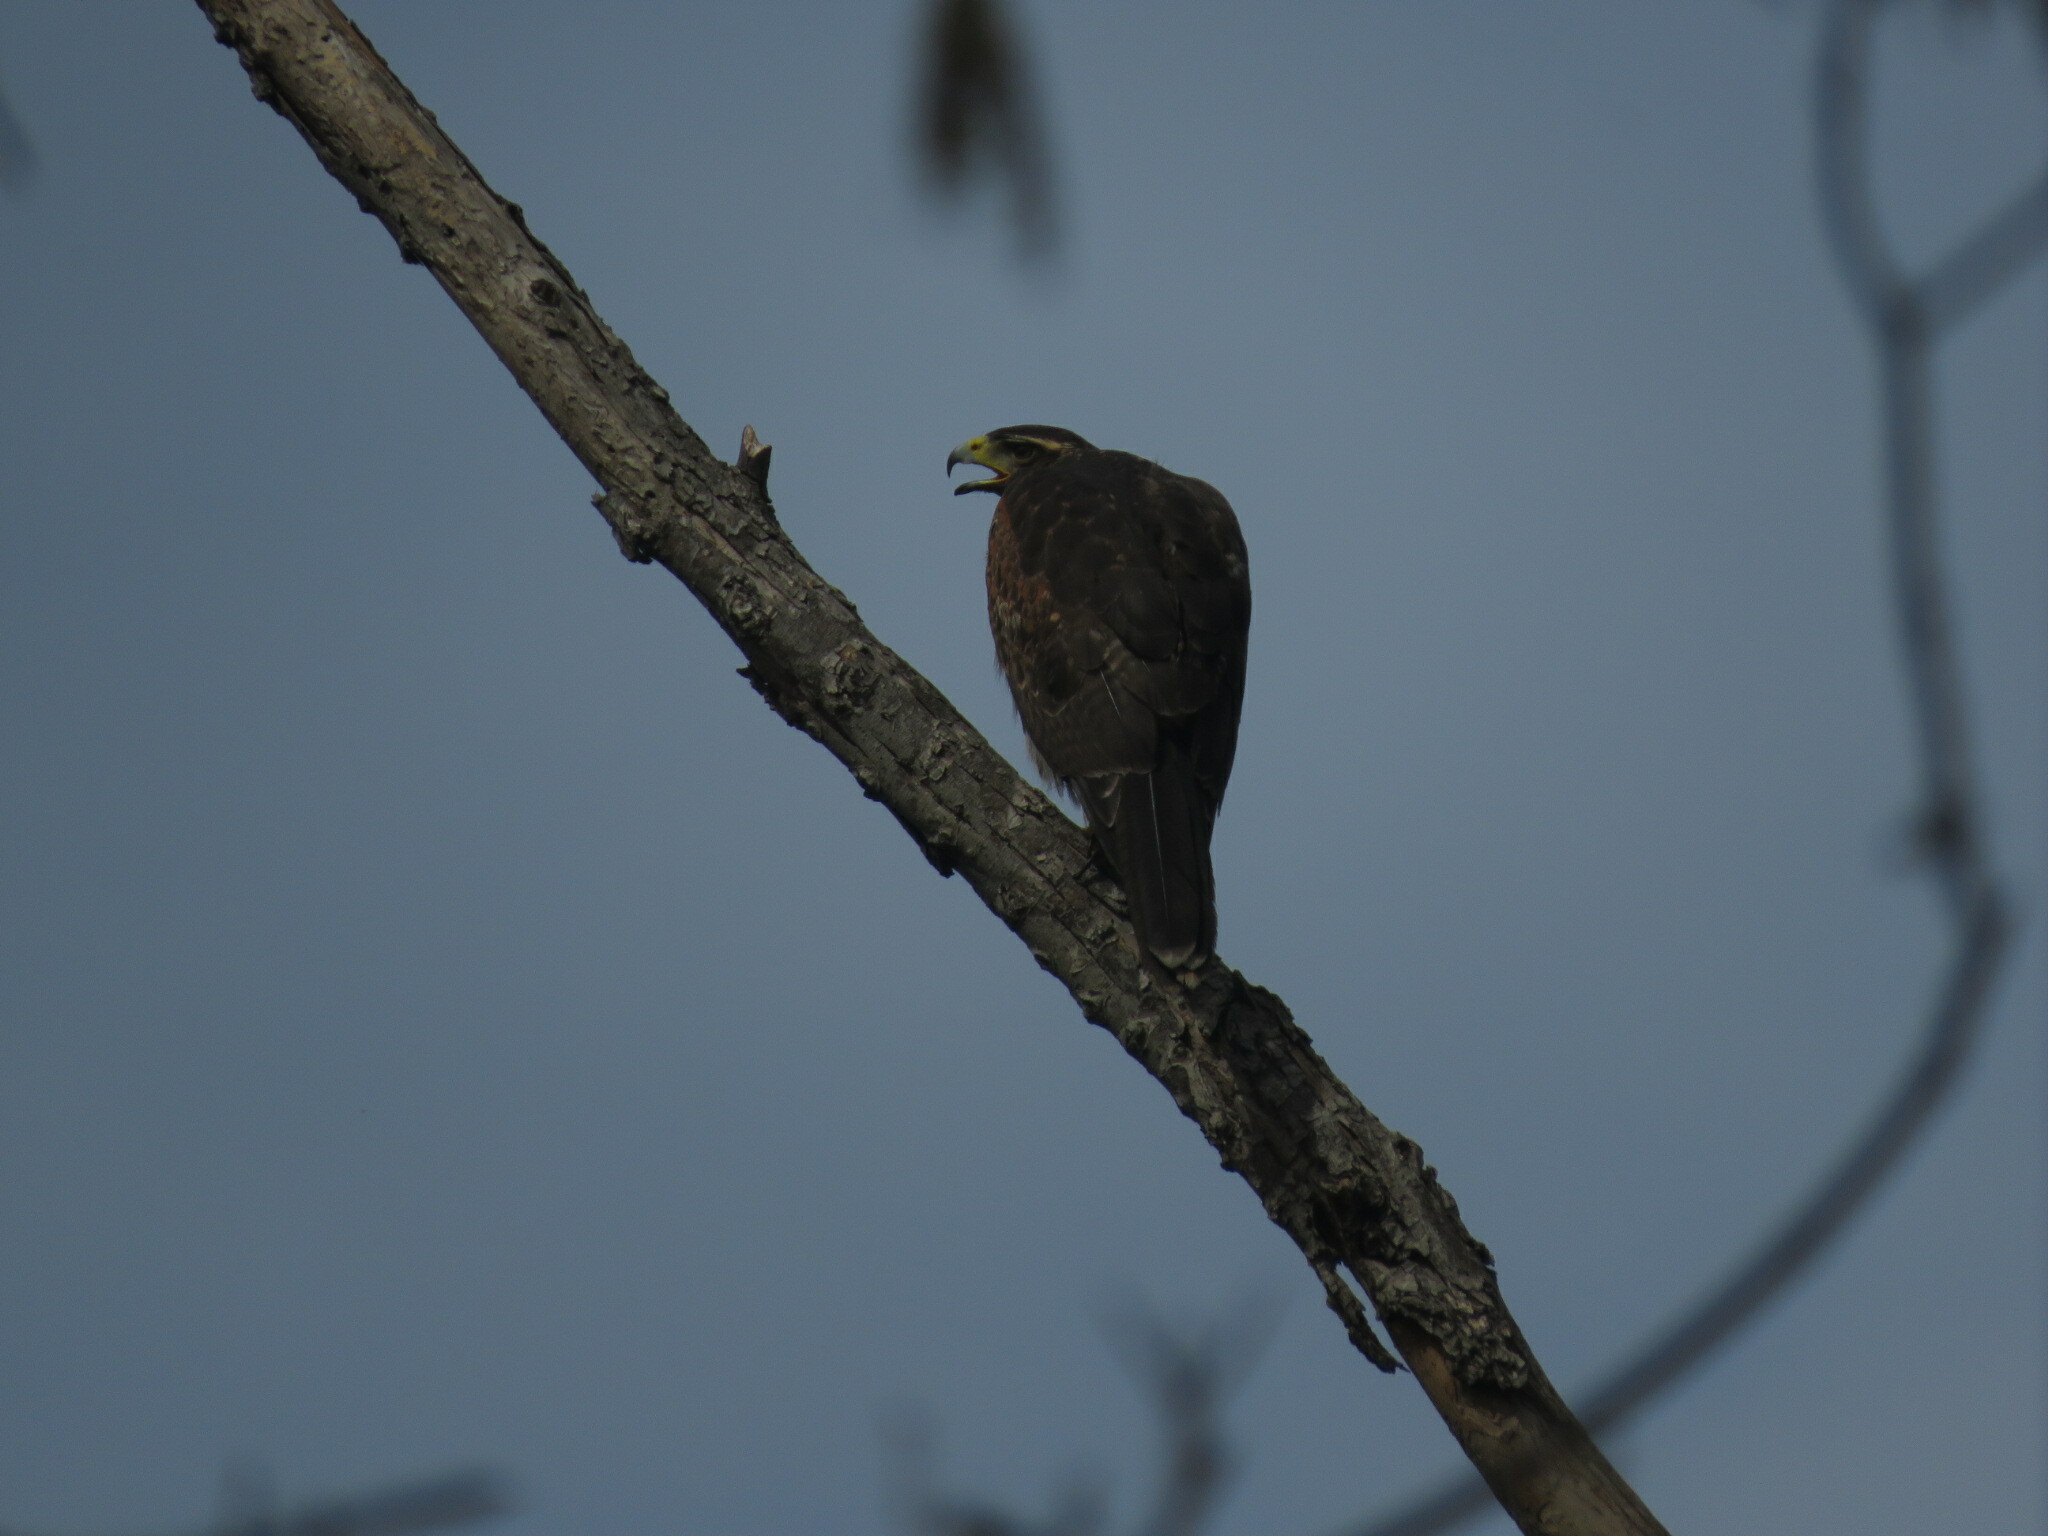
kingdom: Animalia
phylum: Chordata
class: Aves
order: Accipitriformes
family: Accipitridae
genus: Parabuteo
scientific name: Parabuteo unicinctus
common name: Harris's hawk
